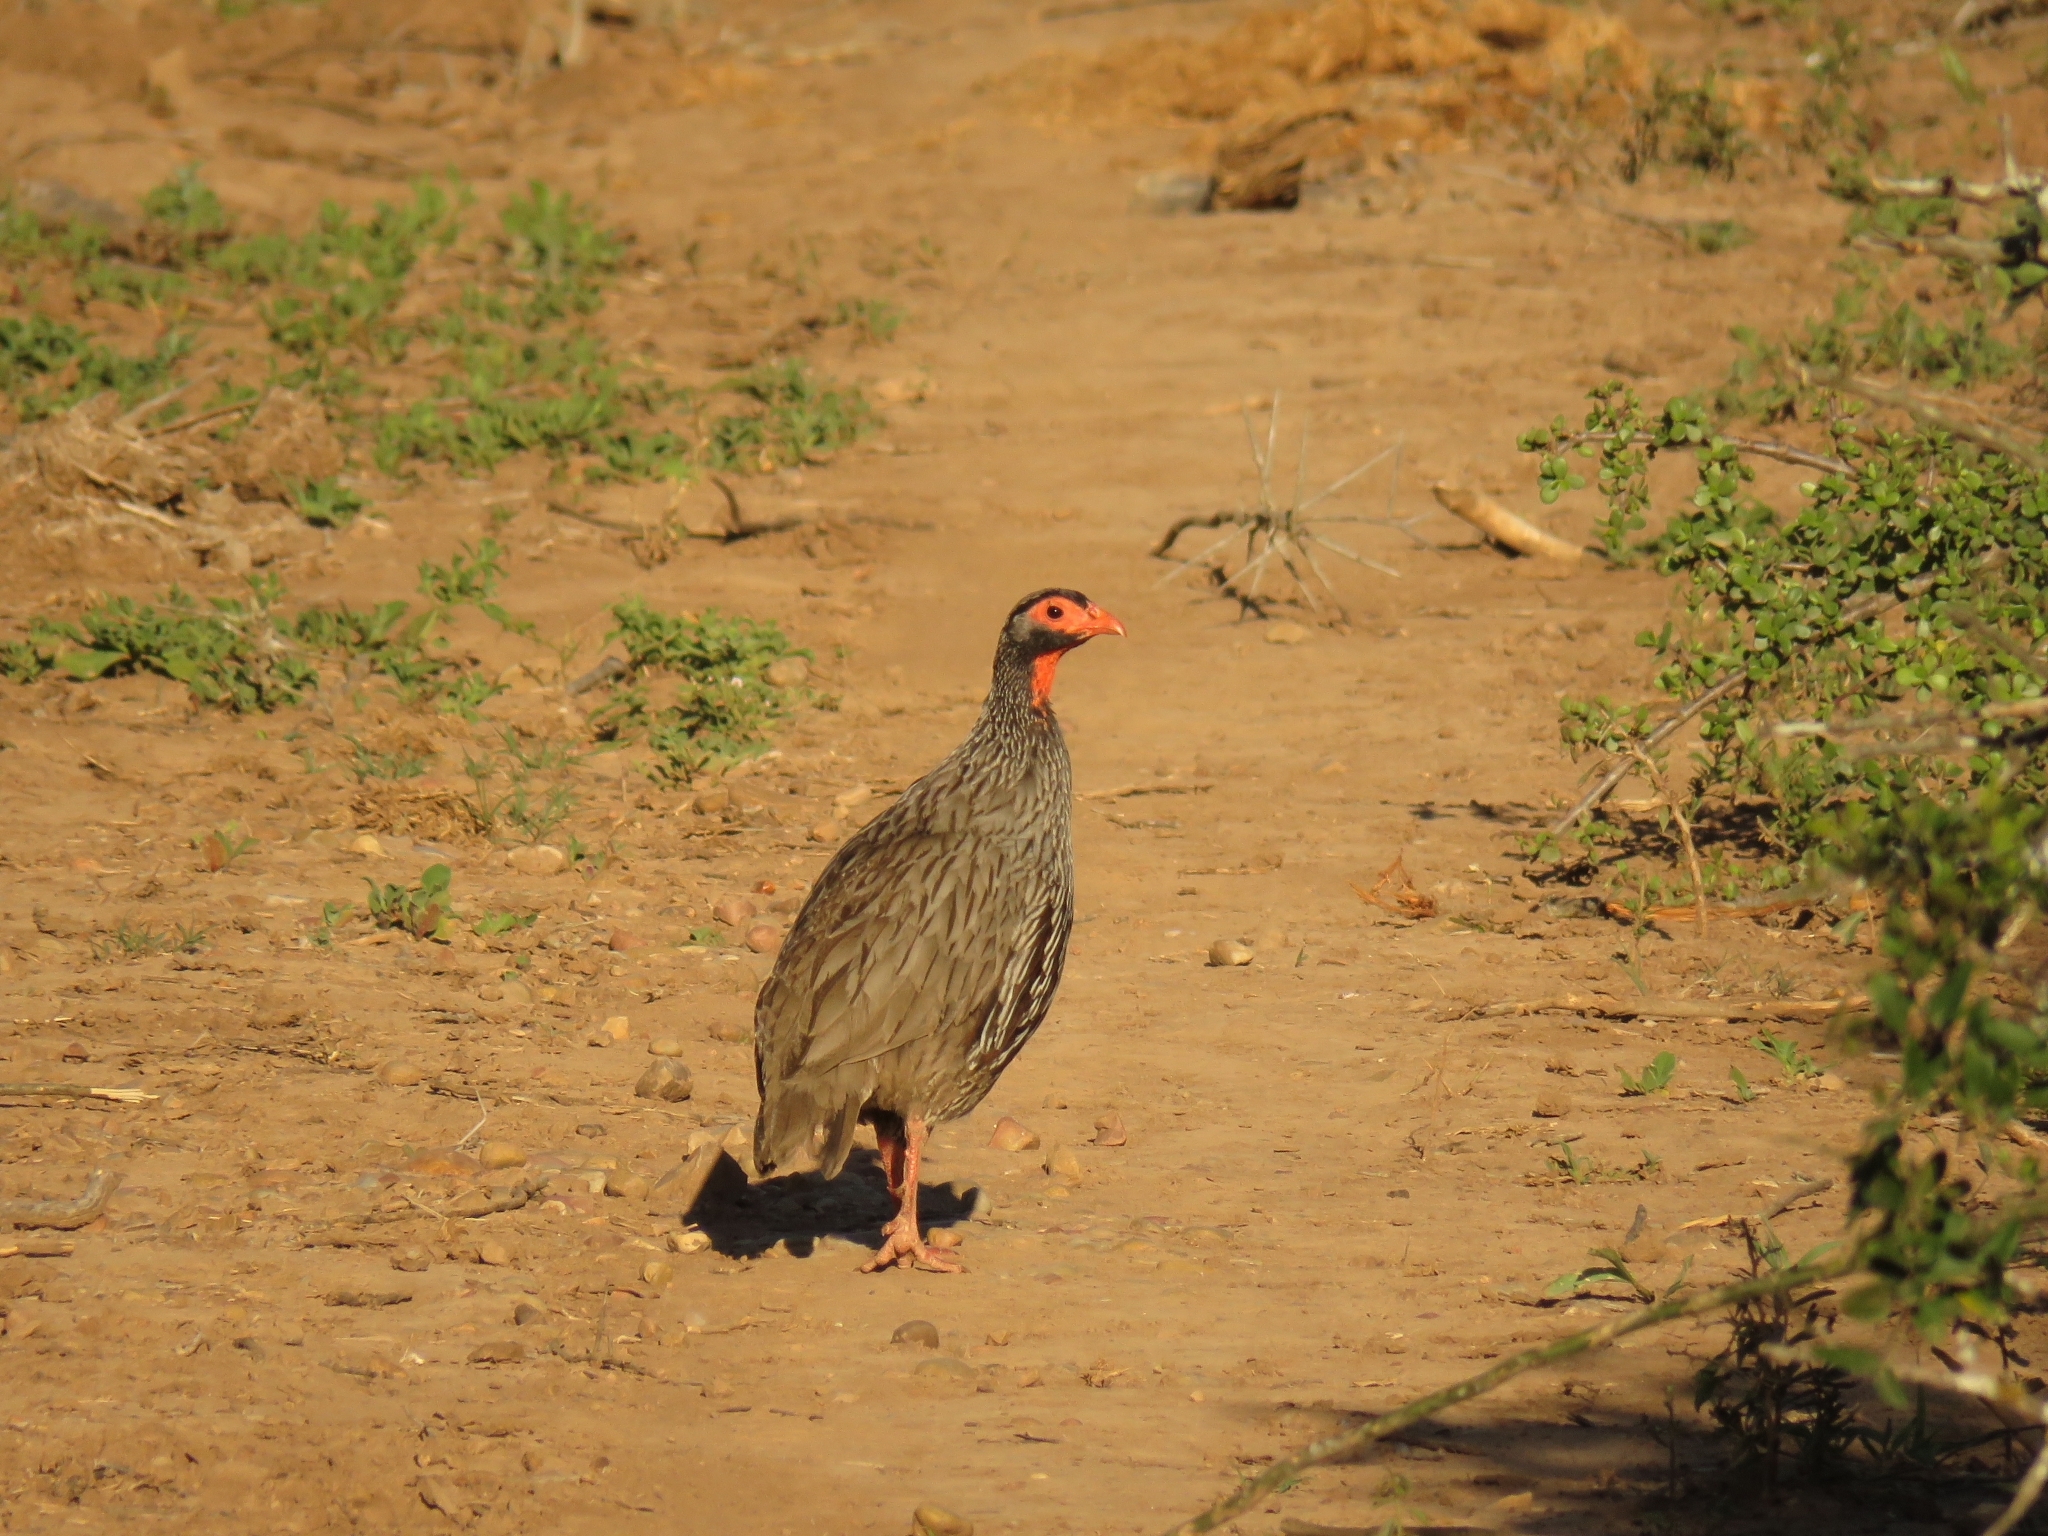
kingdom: Animalia
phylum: Chordata
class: Aves
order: Galliformes
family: Phasianidae
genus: Pternistis
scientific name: Pternistis afer
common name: Red-necked spurfowl
